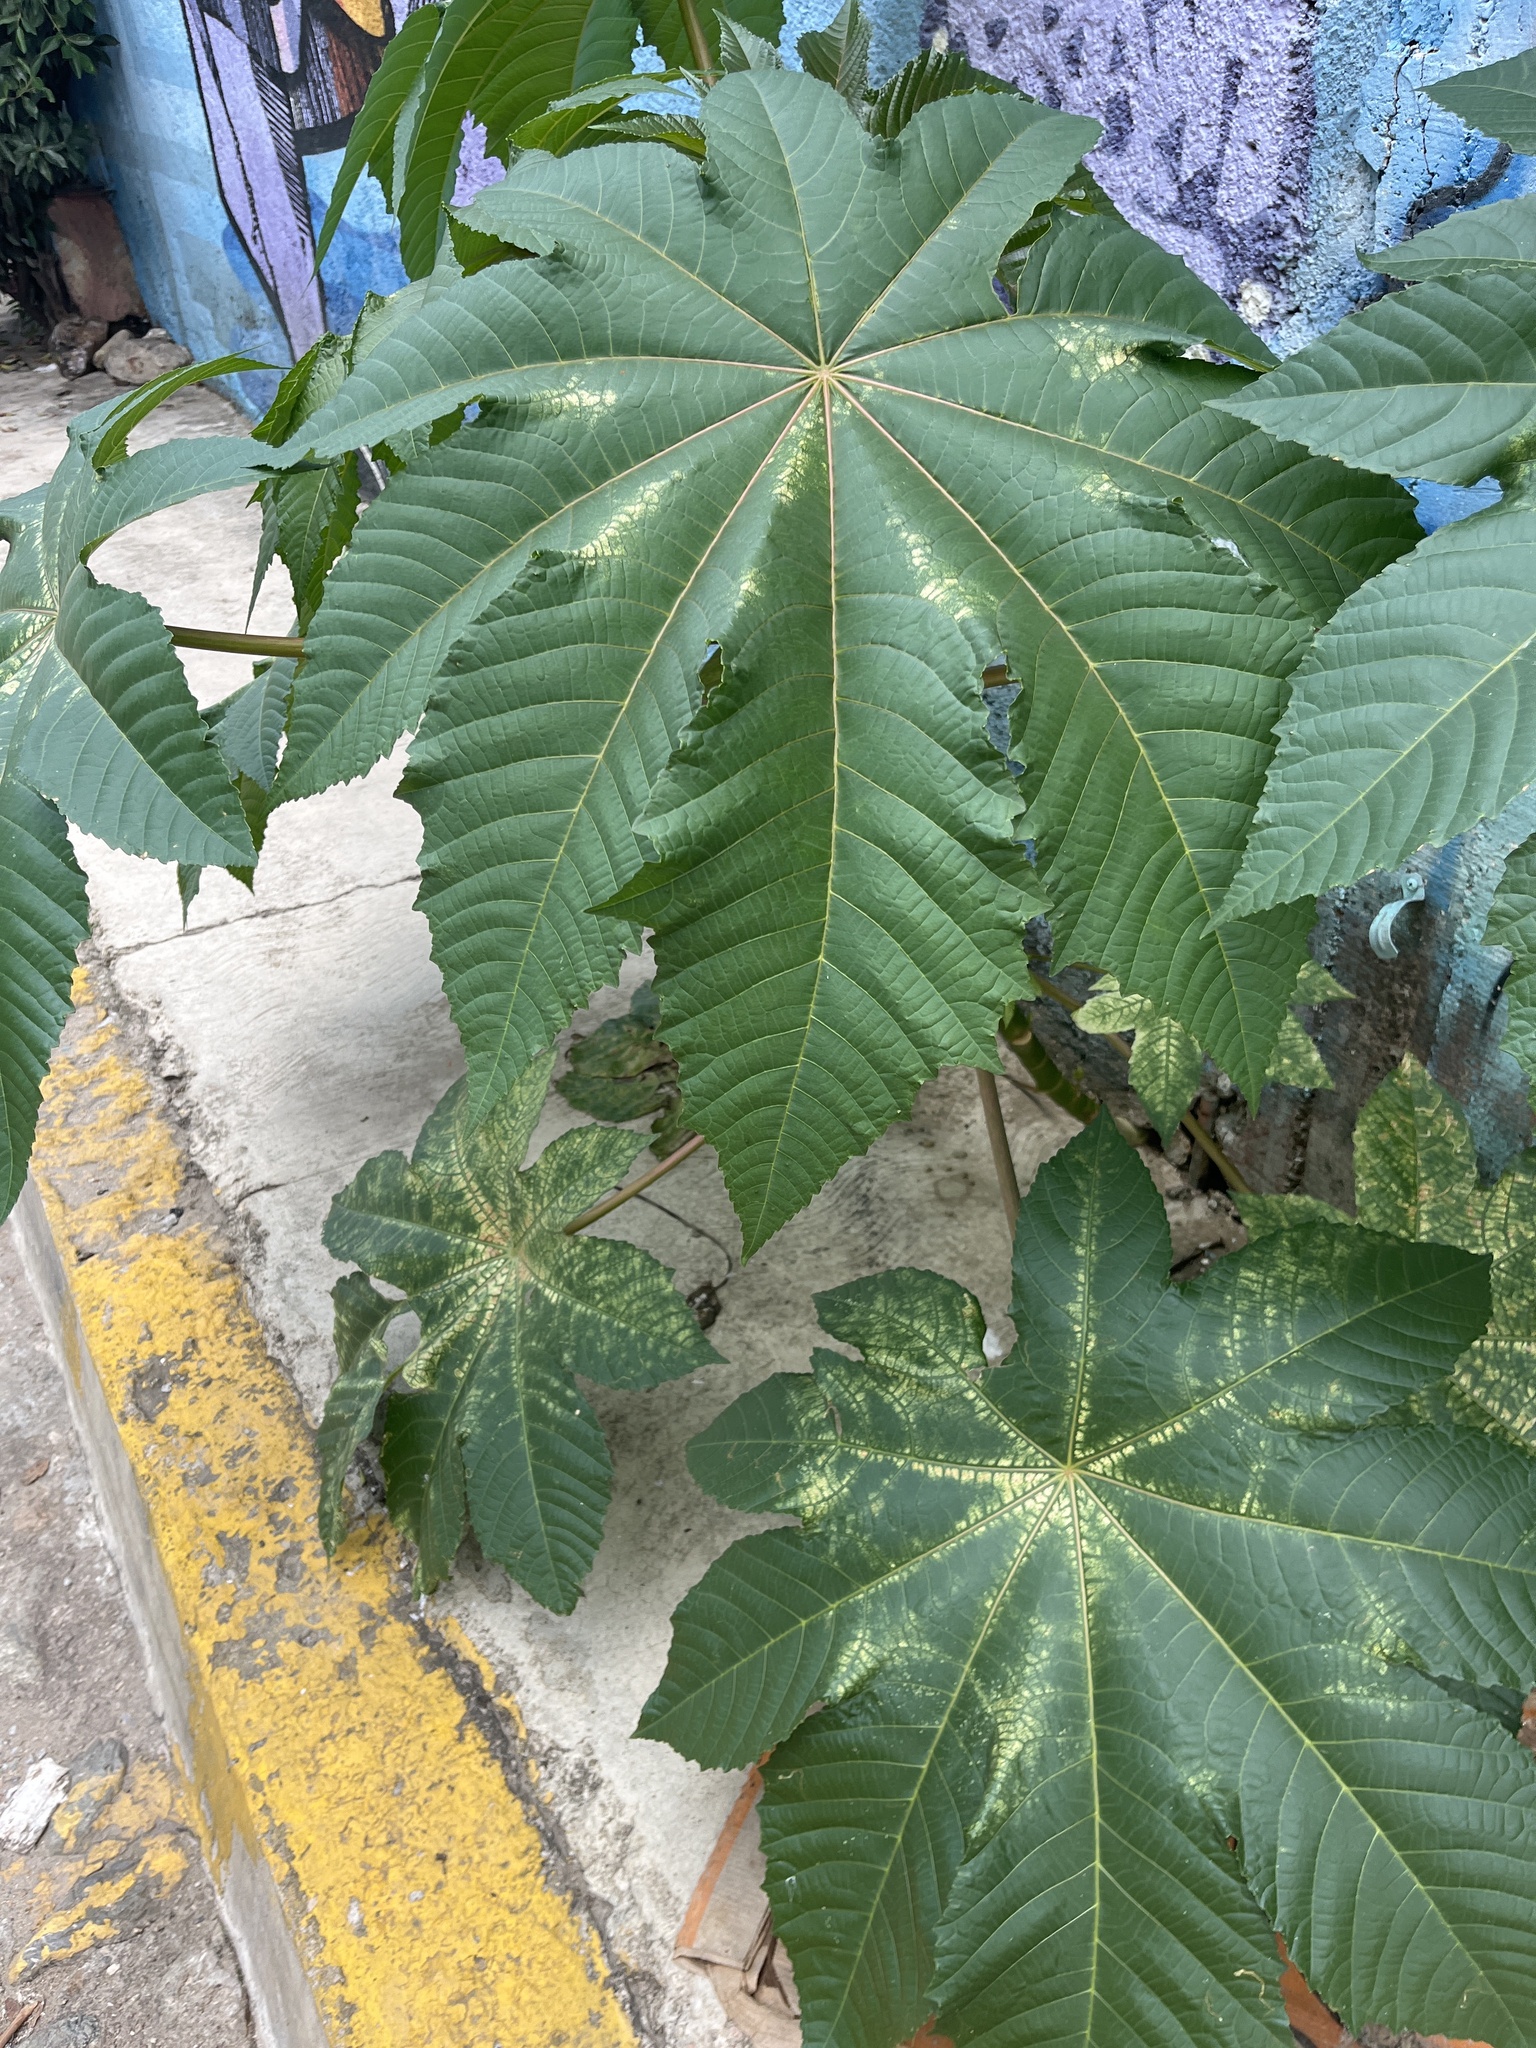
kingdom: Plantae
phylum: Tracheophyta
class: Magnoliopsida
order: Malpighiales
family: Euphorbiaceae
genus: Ricinus
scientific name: Ricinus communis
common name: Castor-oil-plant
